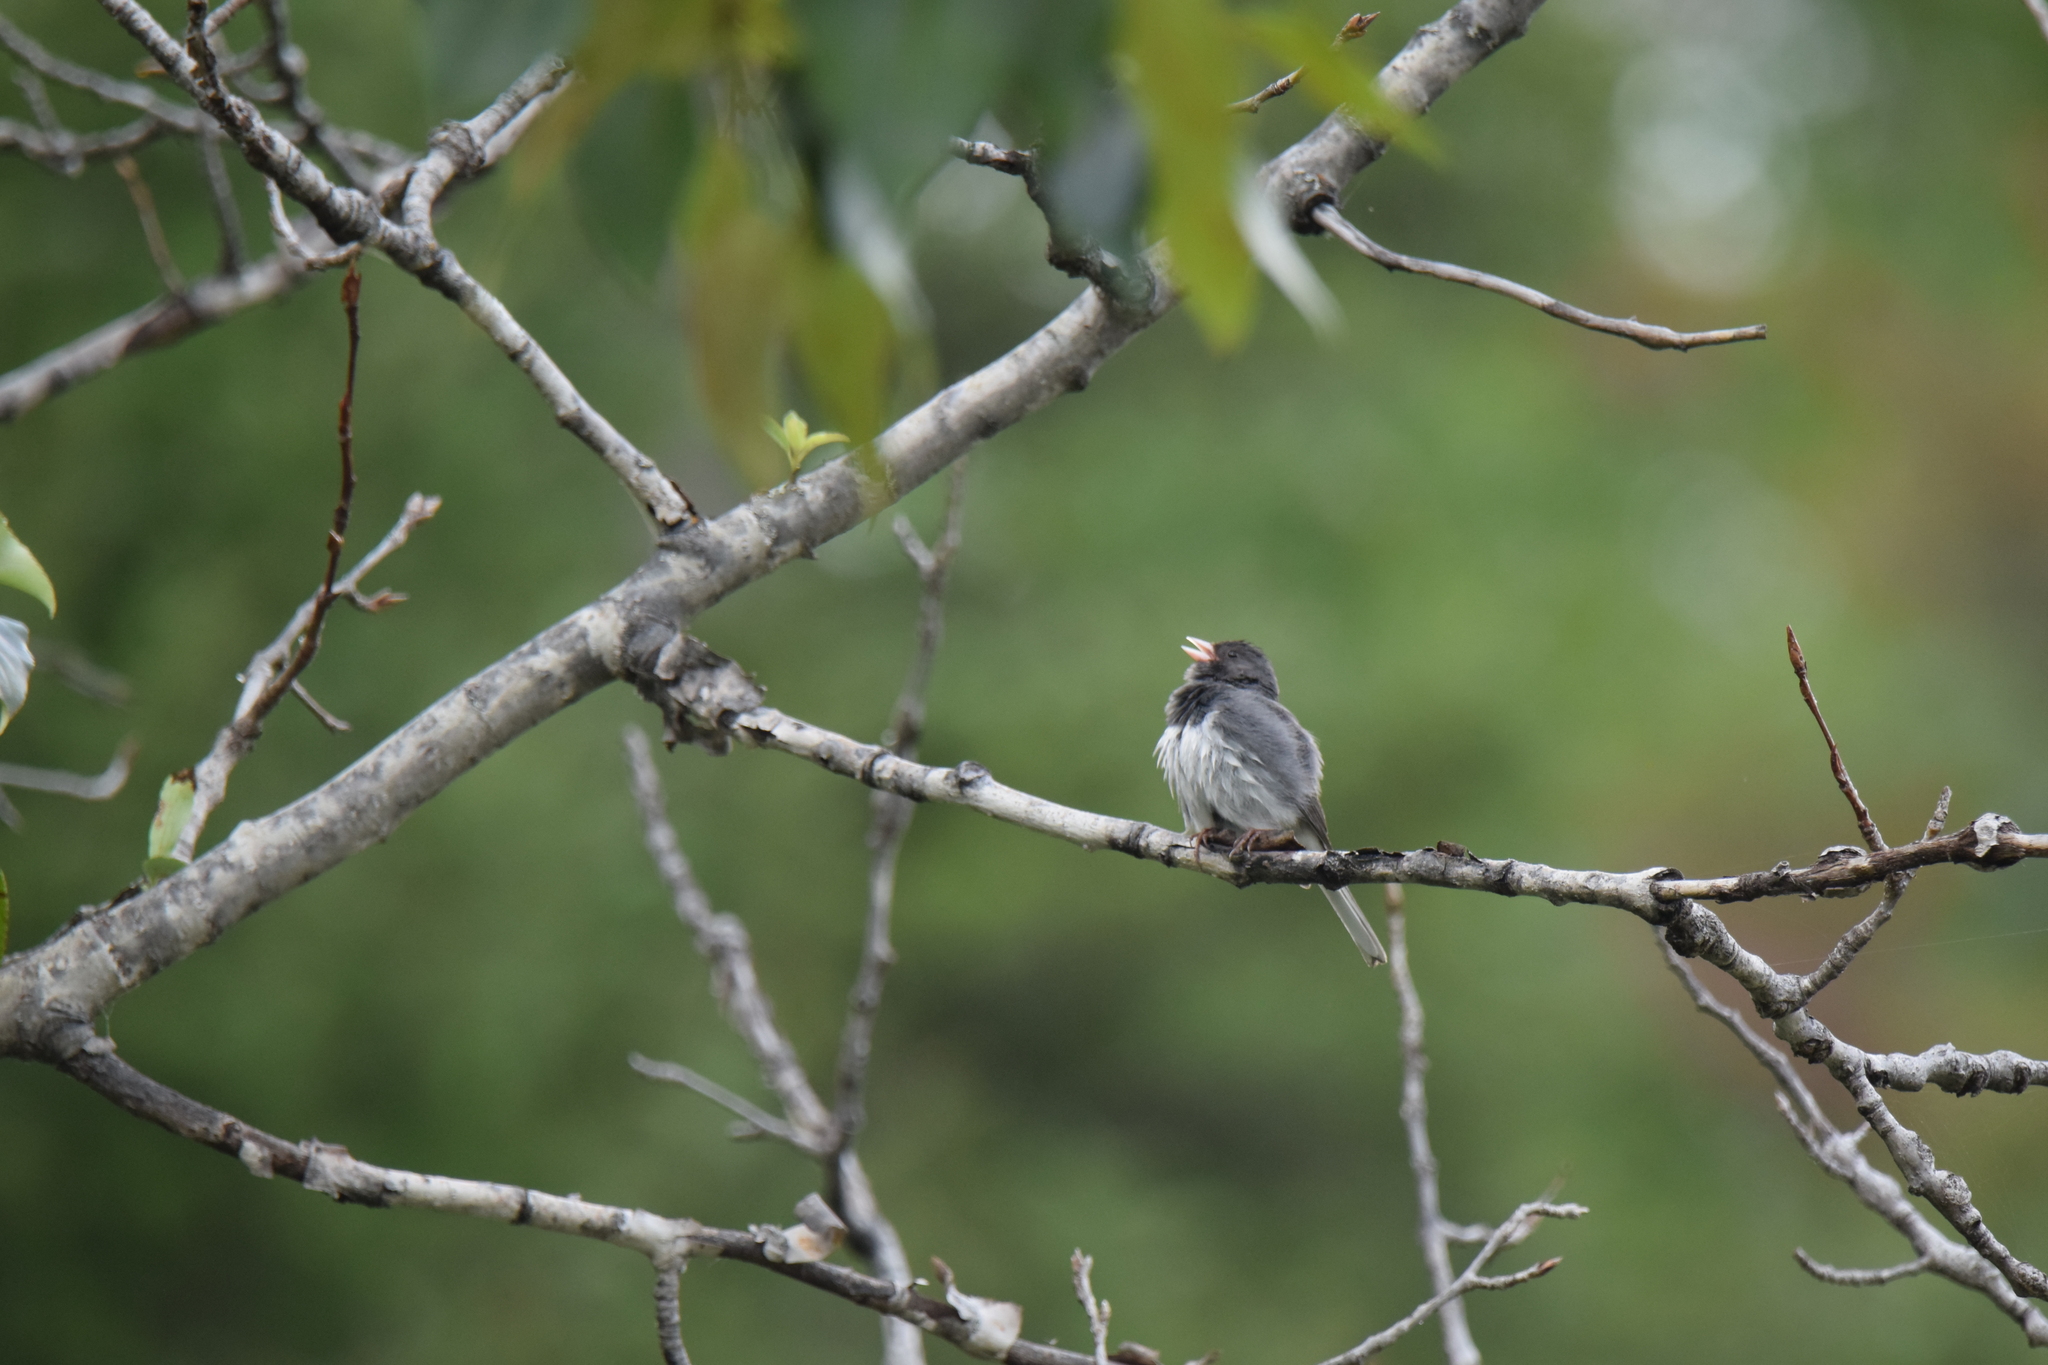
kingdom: Animalia
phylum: Chordata
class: Aves
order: Passeriformes
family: Passerellidae
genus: Junco
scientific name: Junco hyemalis
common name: Dark-eyed junco
